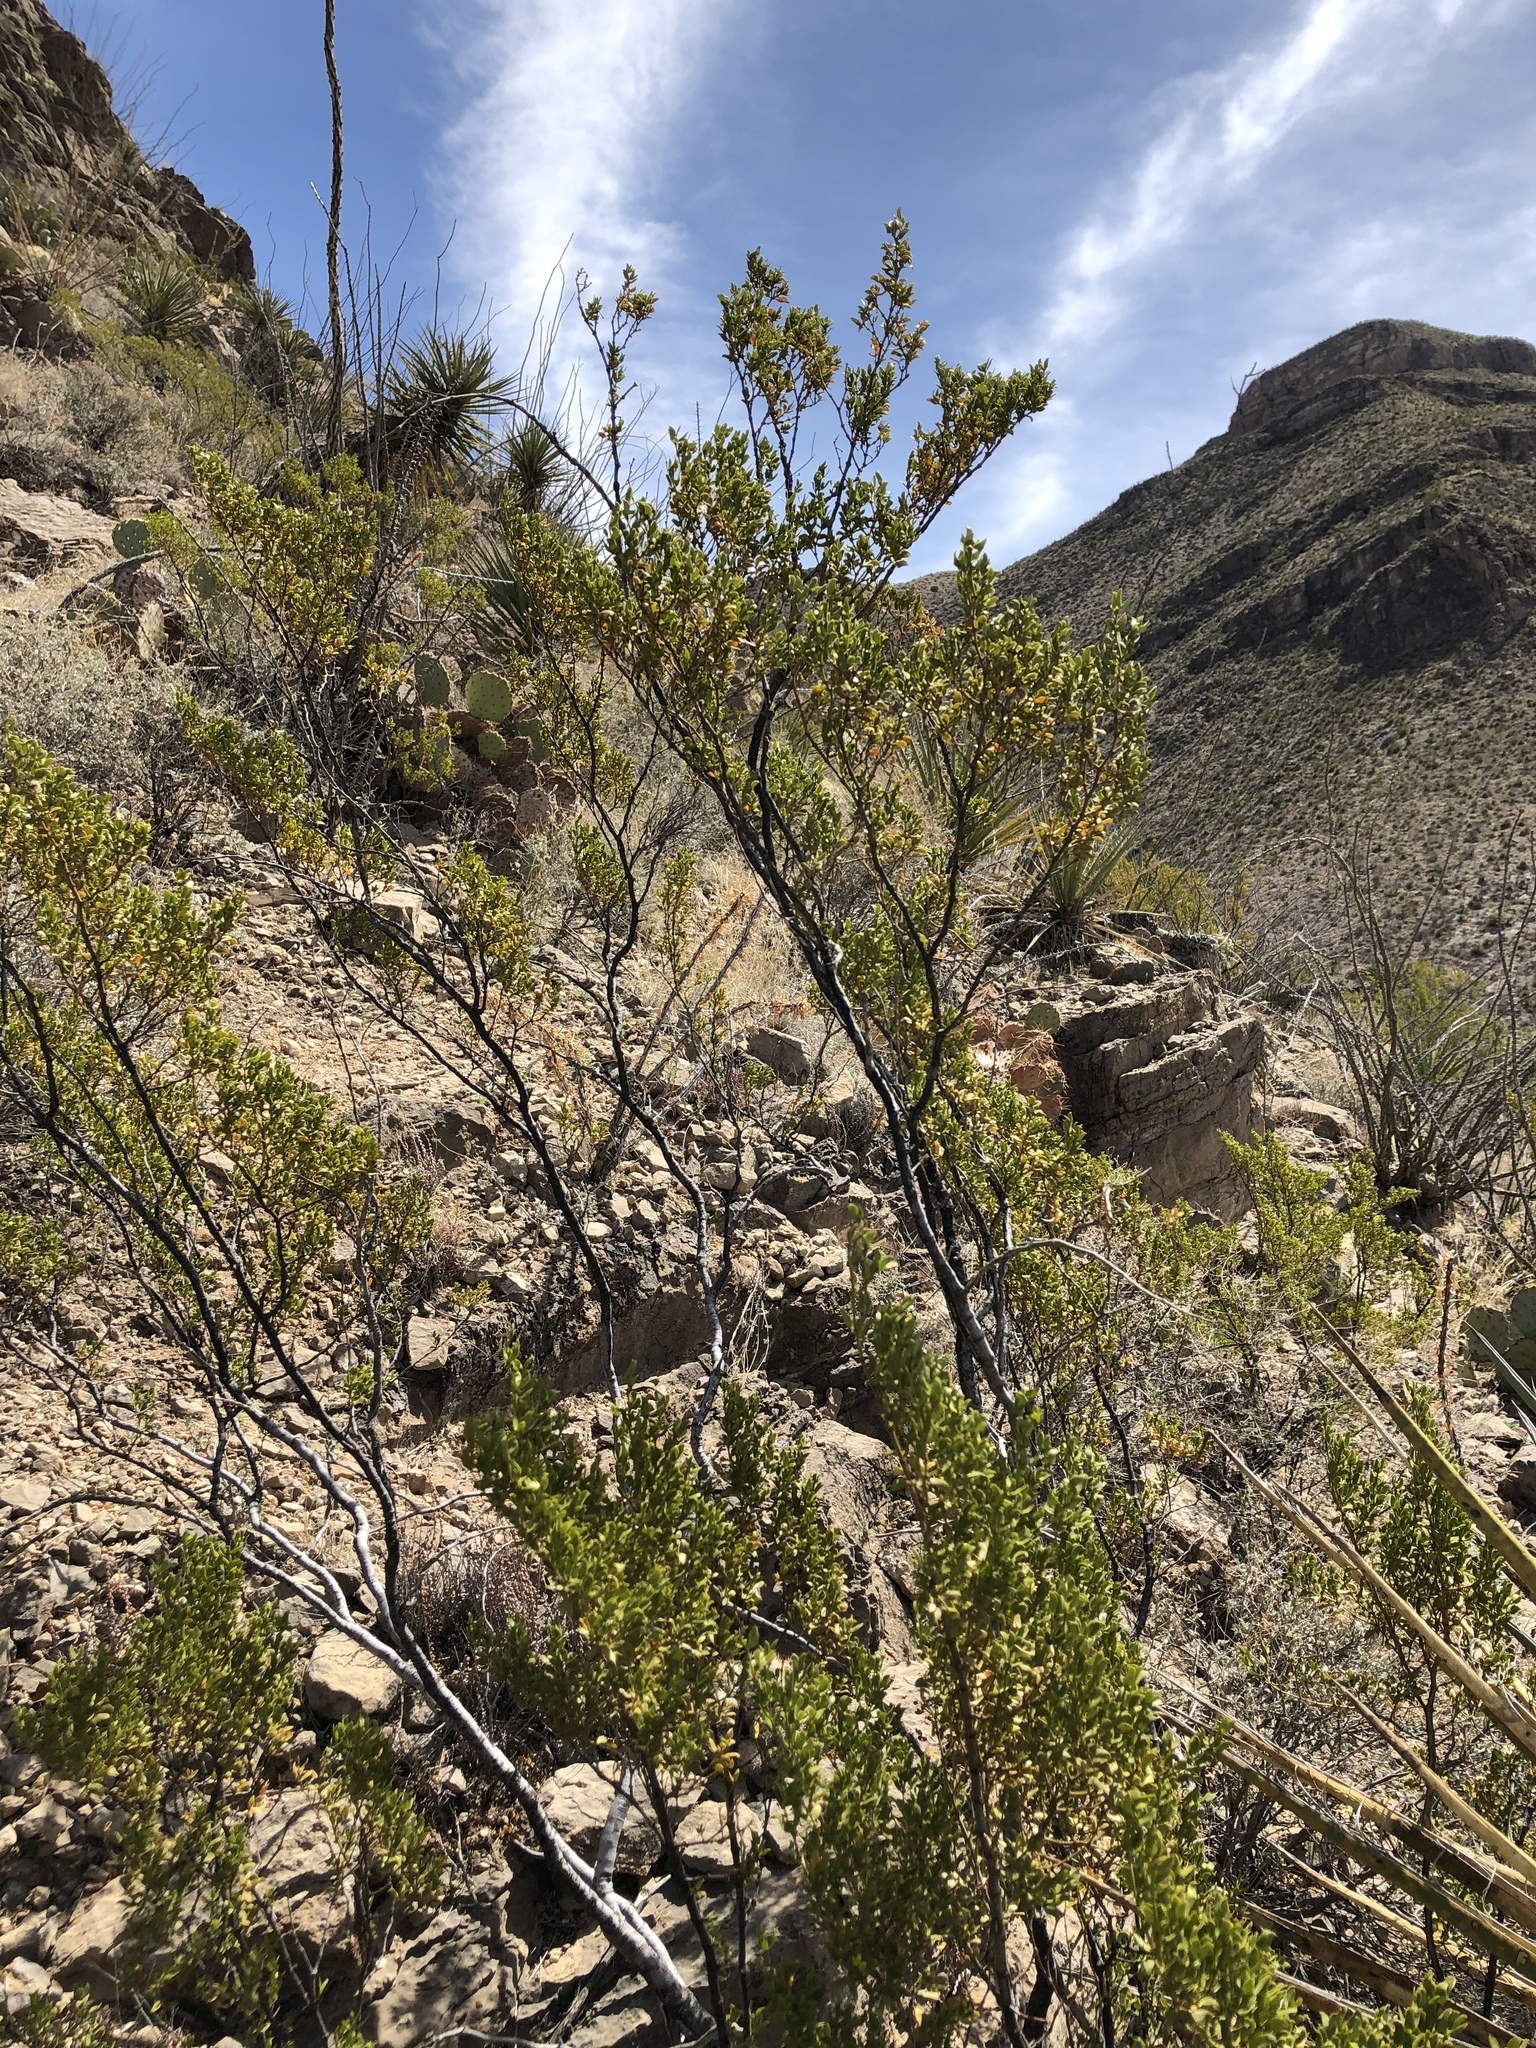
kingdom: Plantae
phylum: Tracheophyta
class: Magnoliopsida
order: Zygophyllales
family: Zygophyllaceae
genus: Larrea
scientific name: Larrea tridentata
